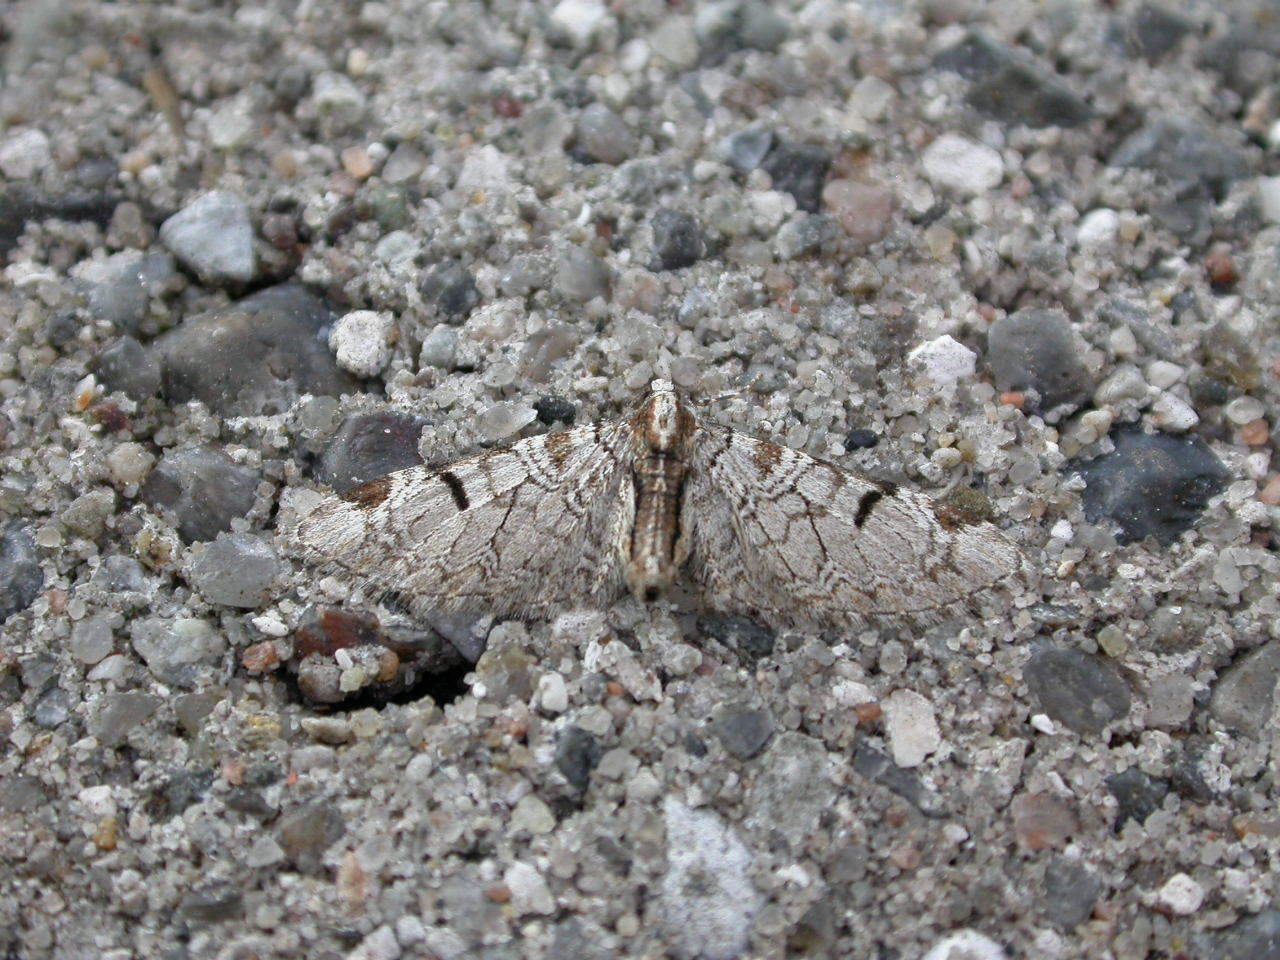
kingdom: Animalia
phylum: Arthropoda
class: Insecta
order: Lepidoptera
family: Geometridae
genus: Eupithecia
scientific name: Eupithecia insigniata
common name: Pinion-spotted pug
